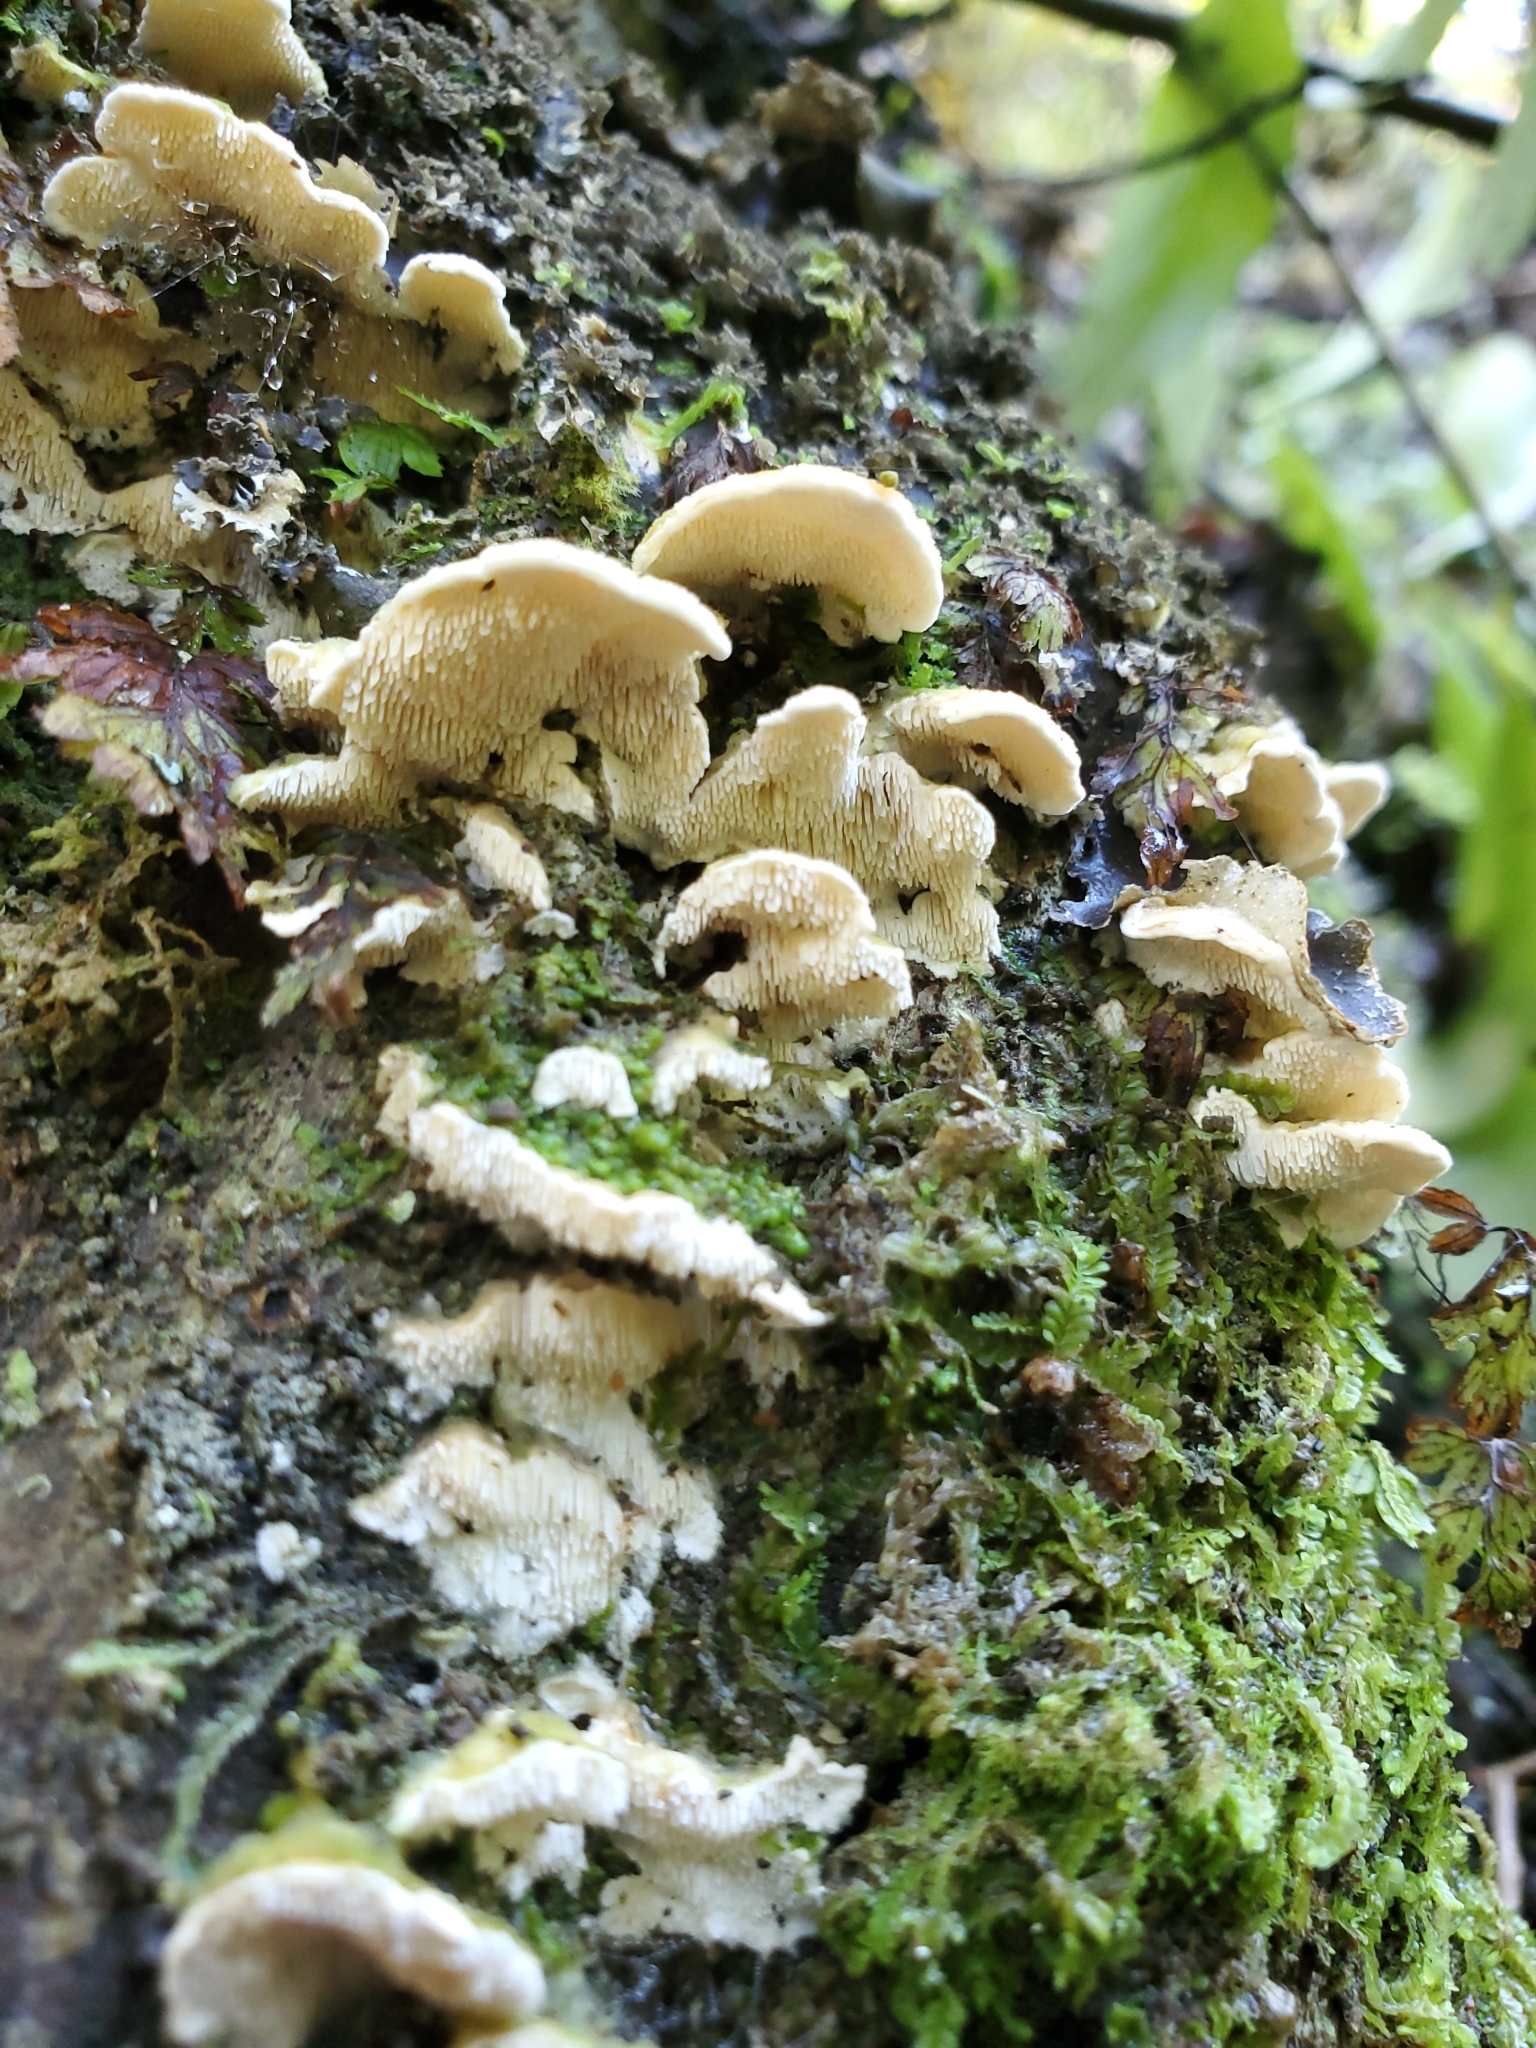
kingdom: Fungi
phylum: Basidiomycota
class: Agaricomycetes
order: Polyporales
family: Cerrenaceae
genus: Cerrena
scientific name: Cerrena zonata
